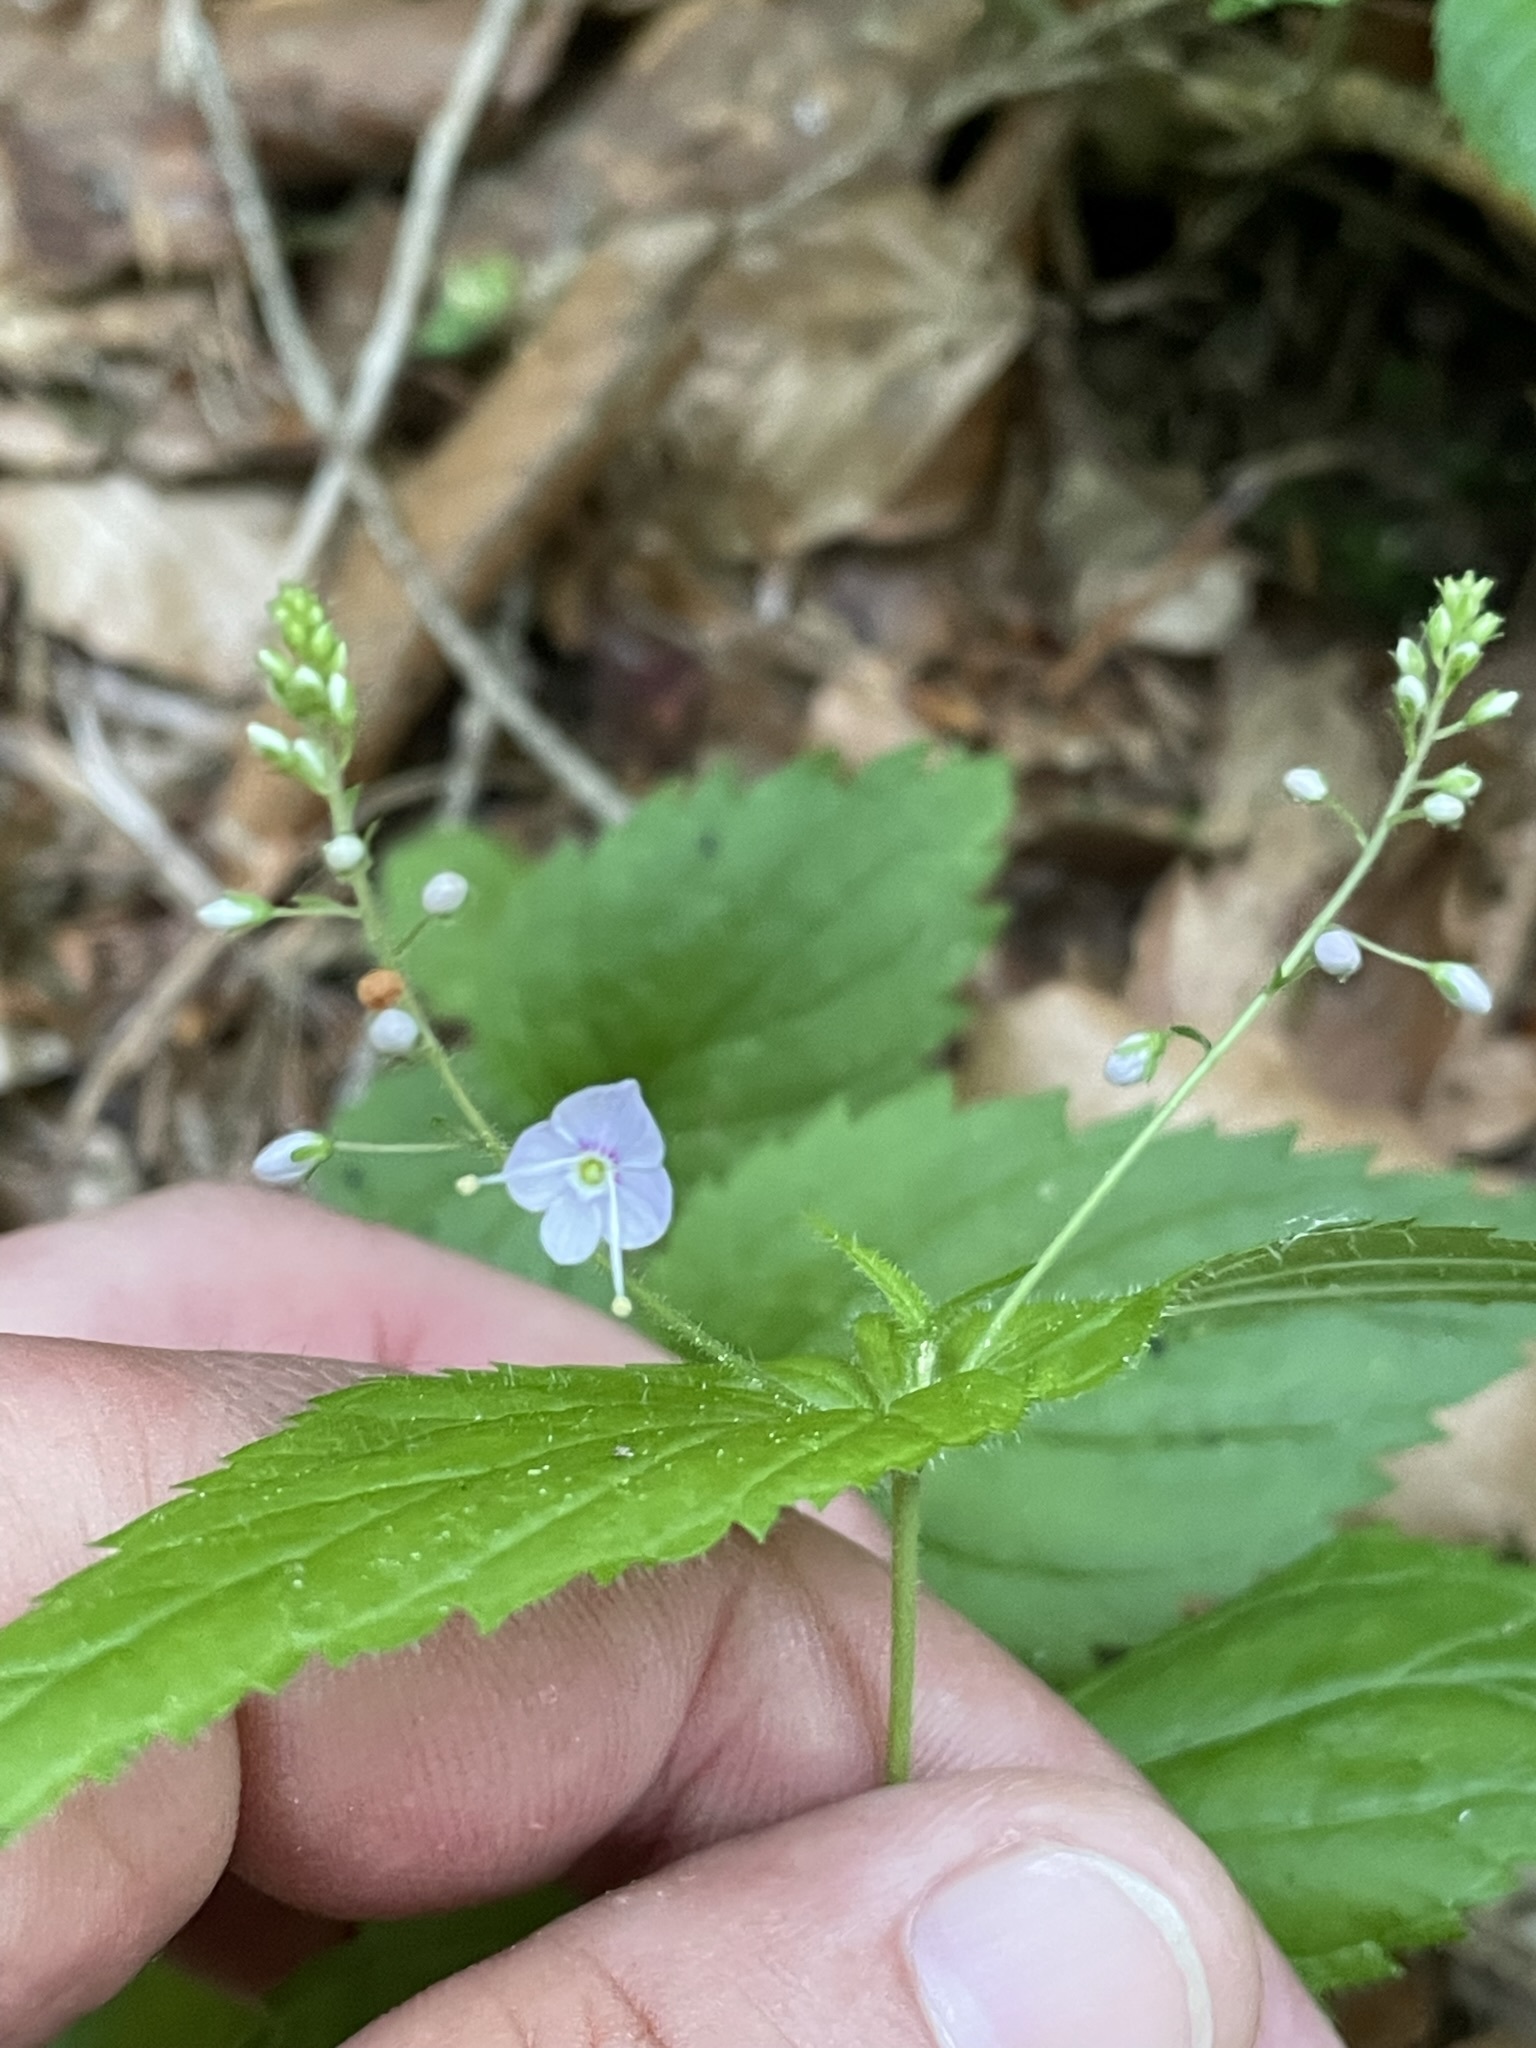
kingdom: Plantae
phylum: Tracheophyta
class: Magnoliopsida
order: Lamiales
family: Plantaginaceae
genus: Veronica
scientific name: Veronica urticifolia
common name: Nettle-leaf speedwell
